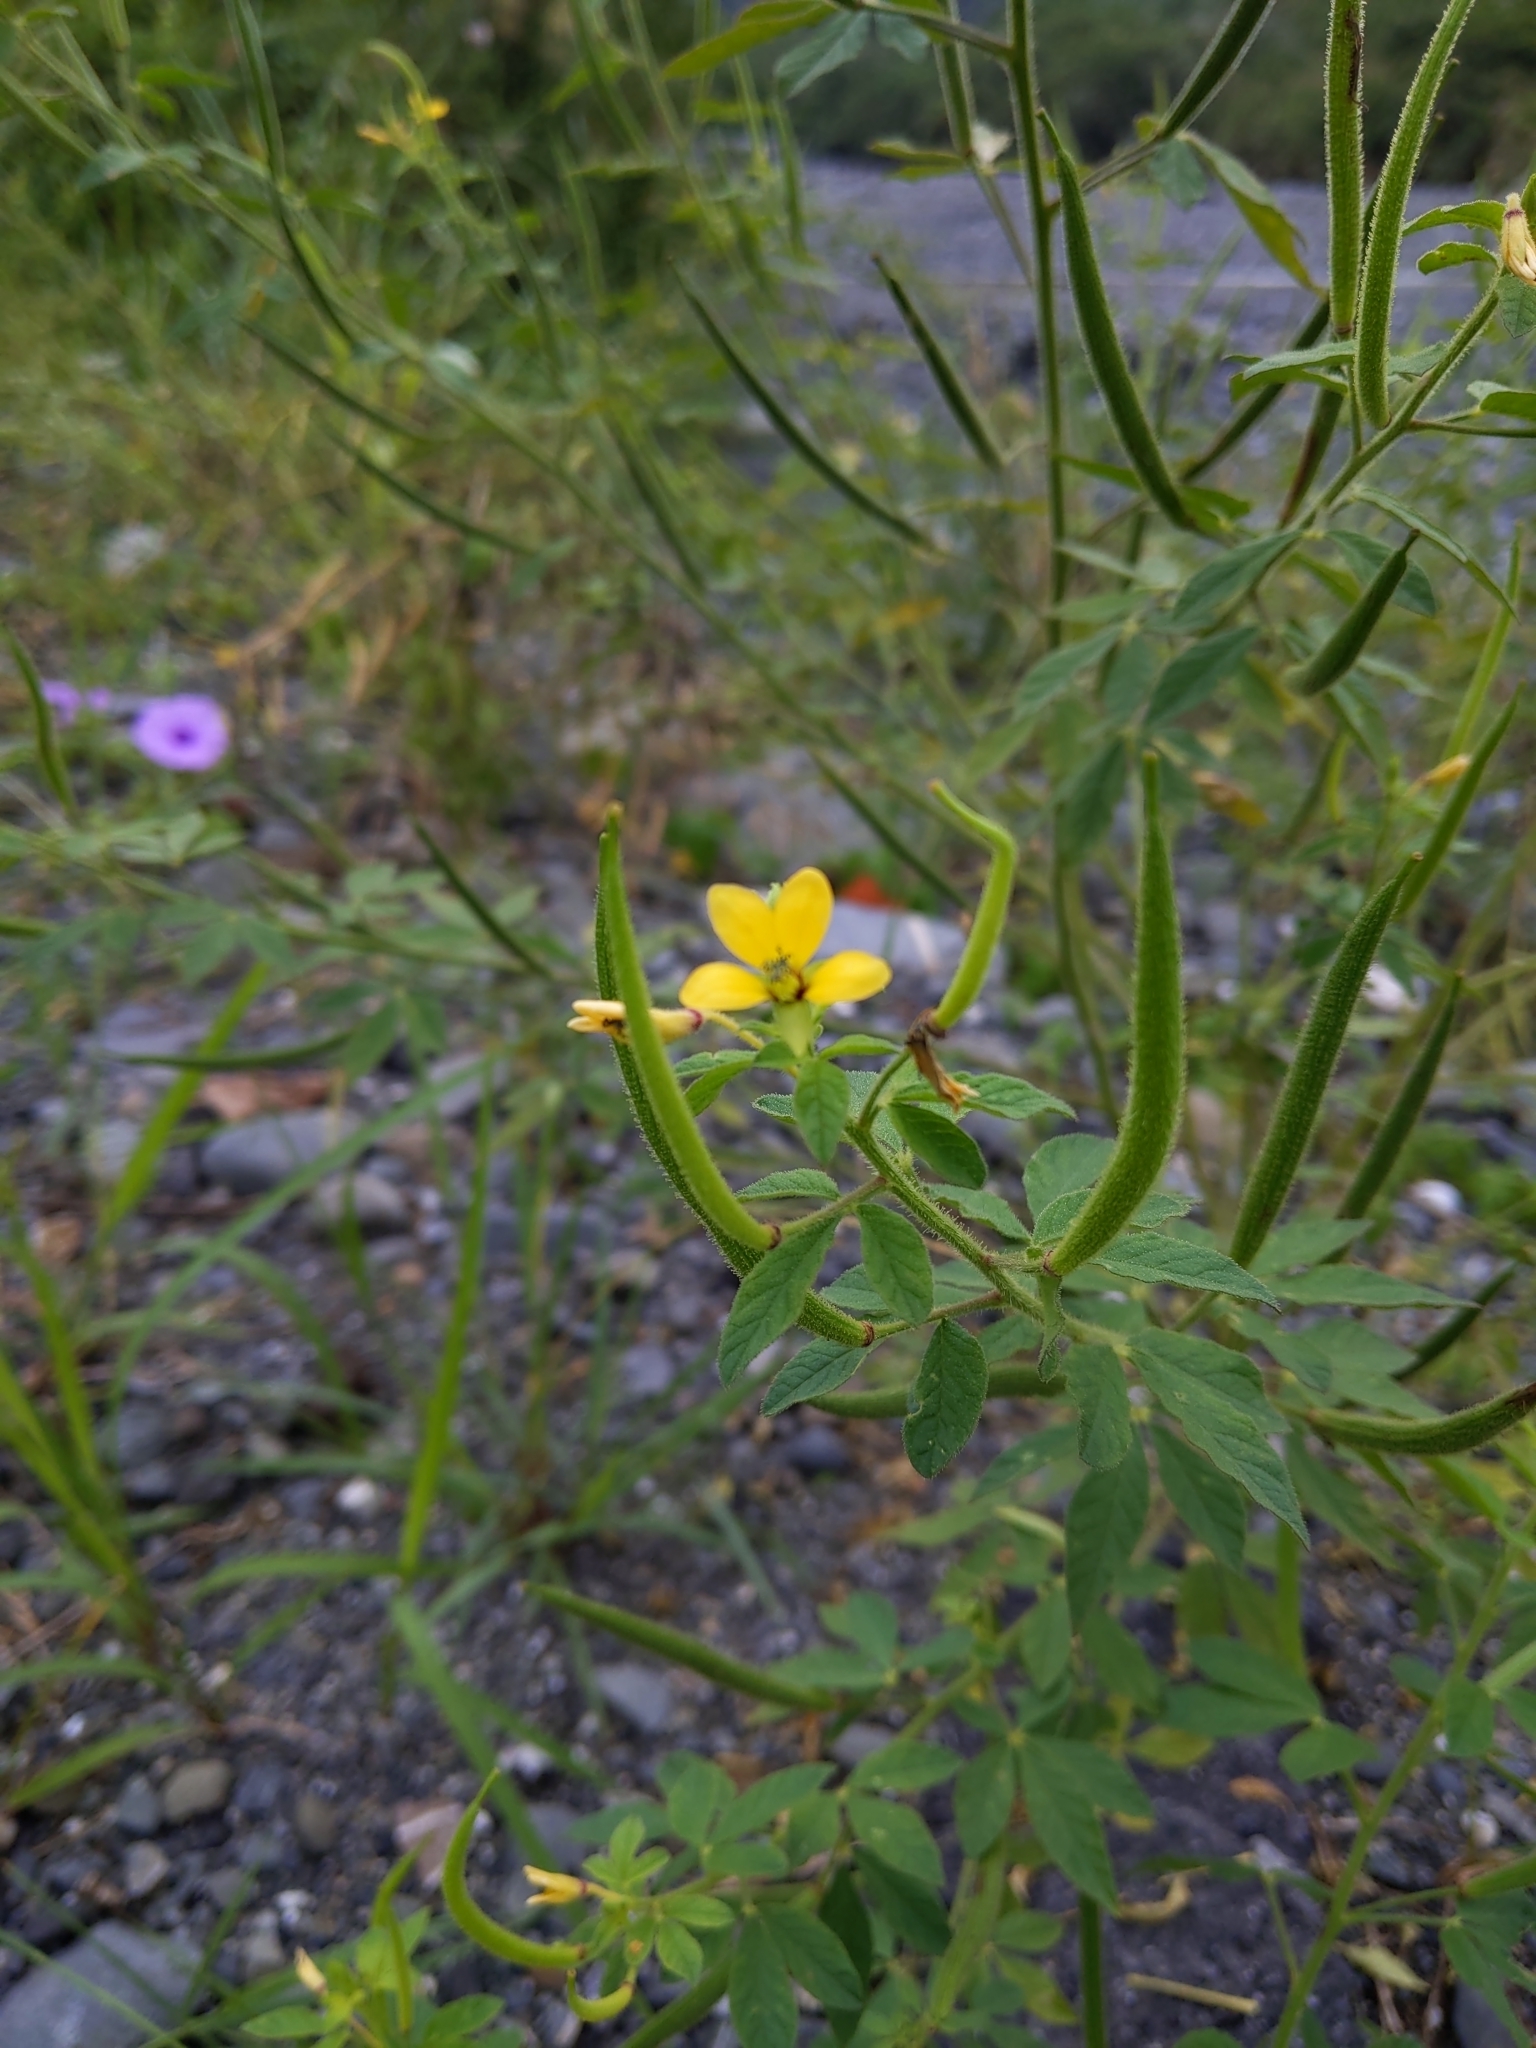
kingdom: Plantae
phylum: Tracheophyta
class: Magnoliopsida
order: Brassicales
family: Cleomaceae
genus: Arivela
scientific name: Arivela viscosa
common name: Asian spiderflower
